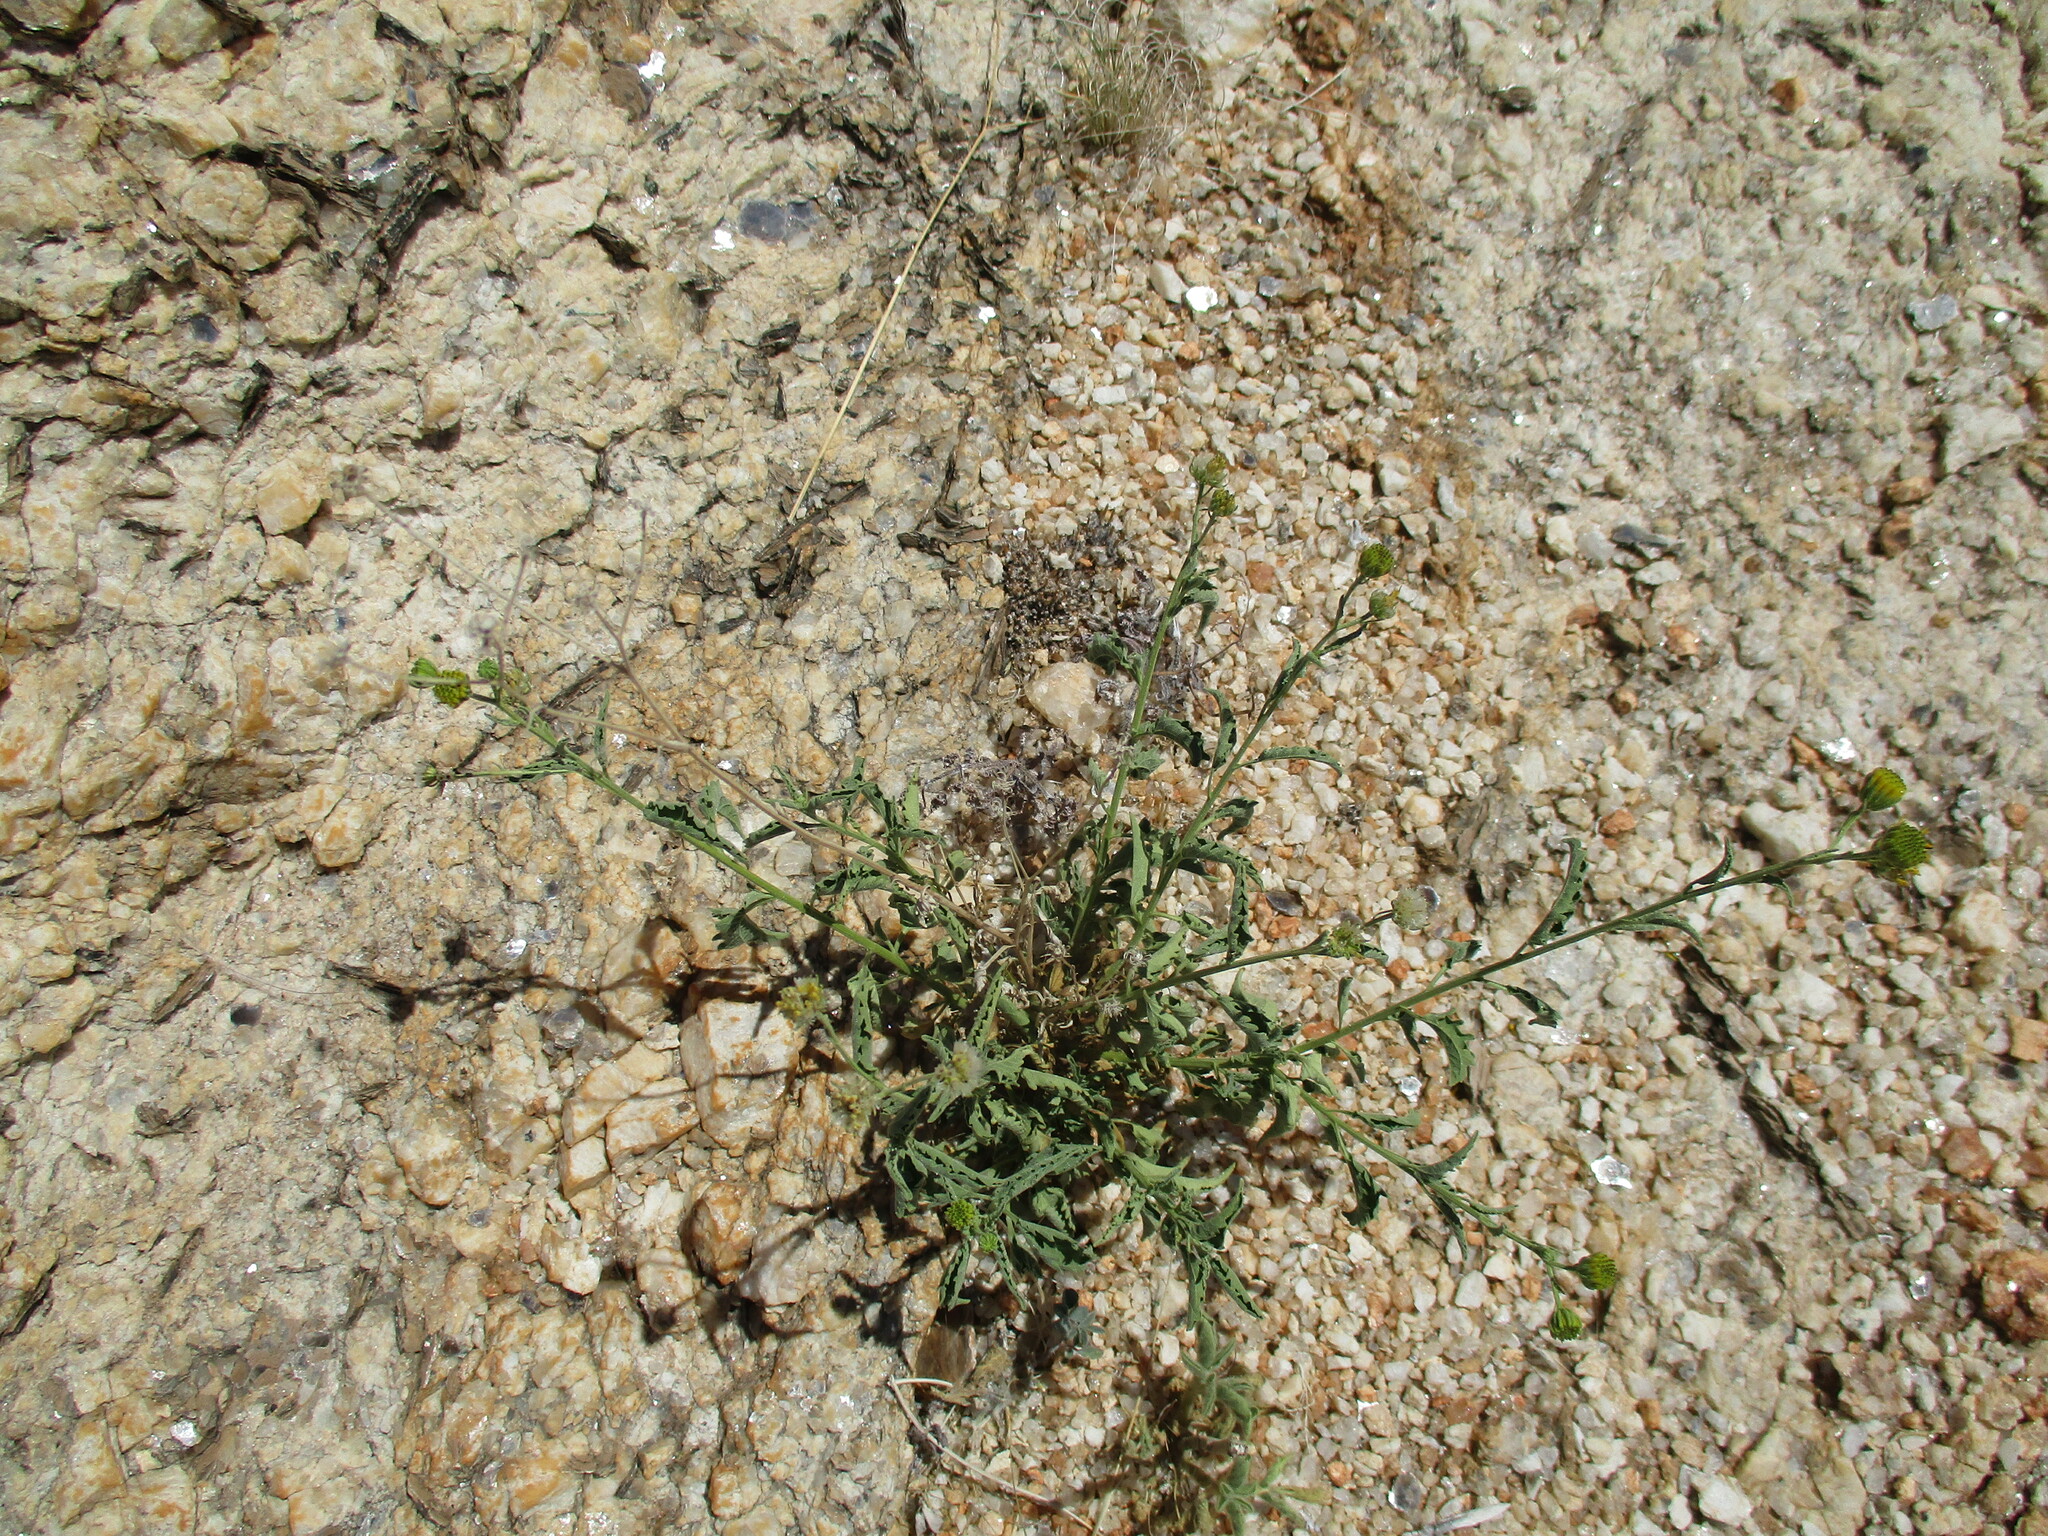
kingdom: Plantae
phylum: Tracheophyta
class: Magnoliopsida
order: Asterales
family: Asteraceae
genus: Calostephane
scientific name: Calostephane marlothiana
